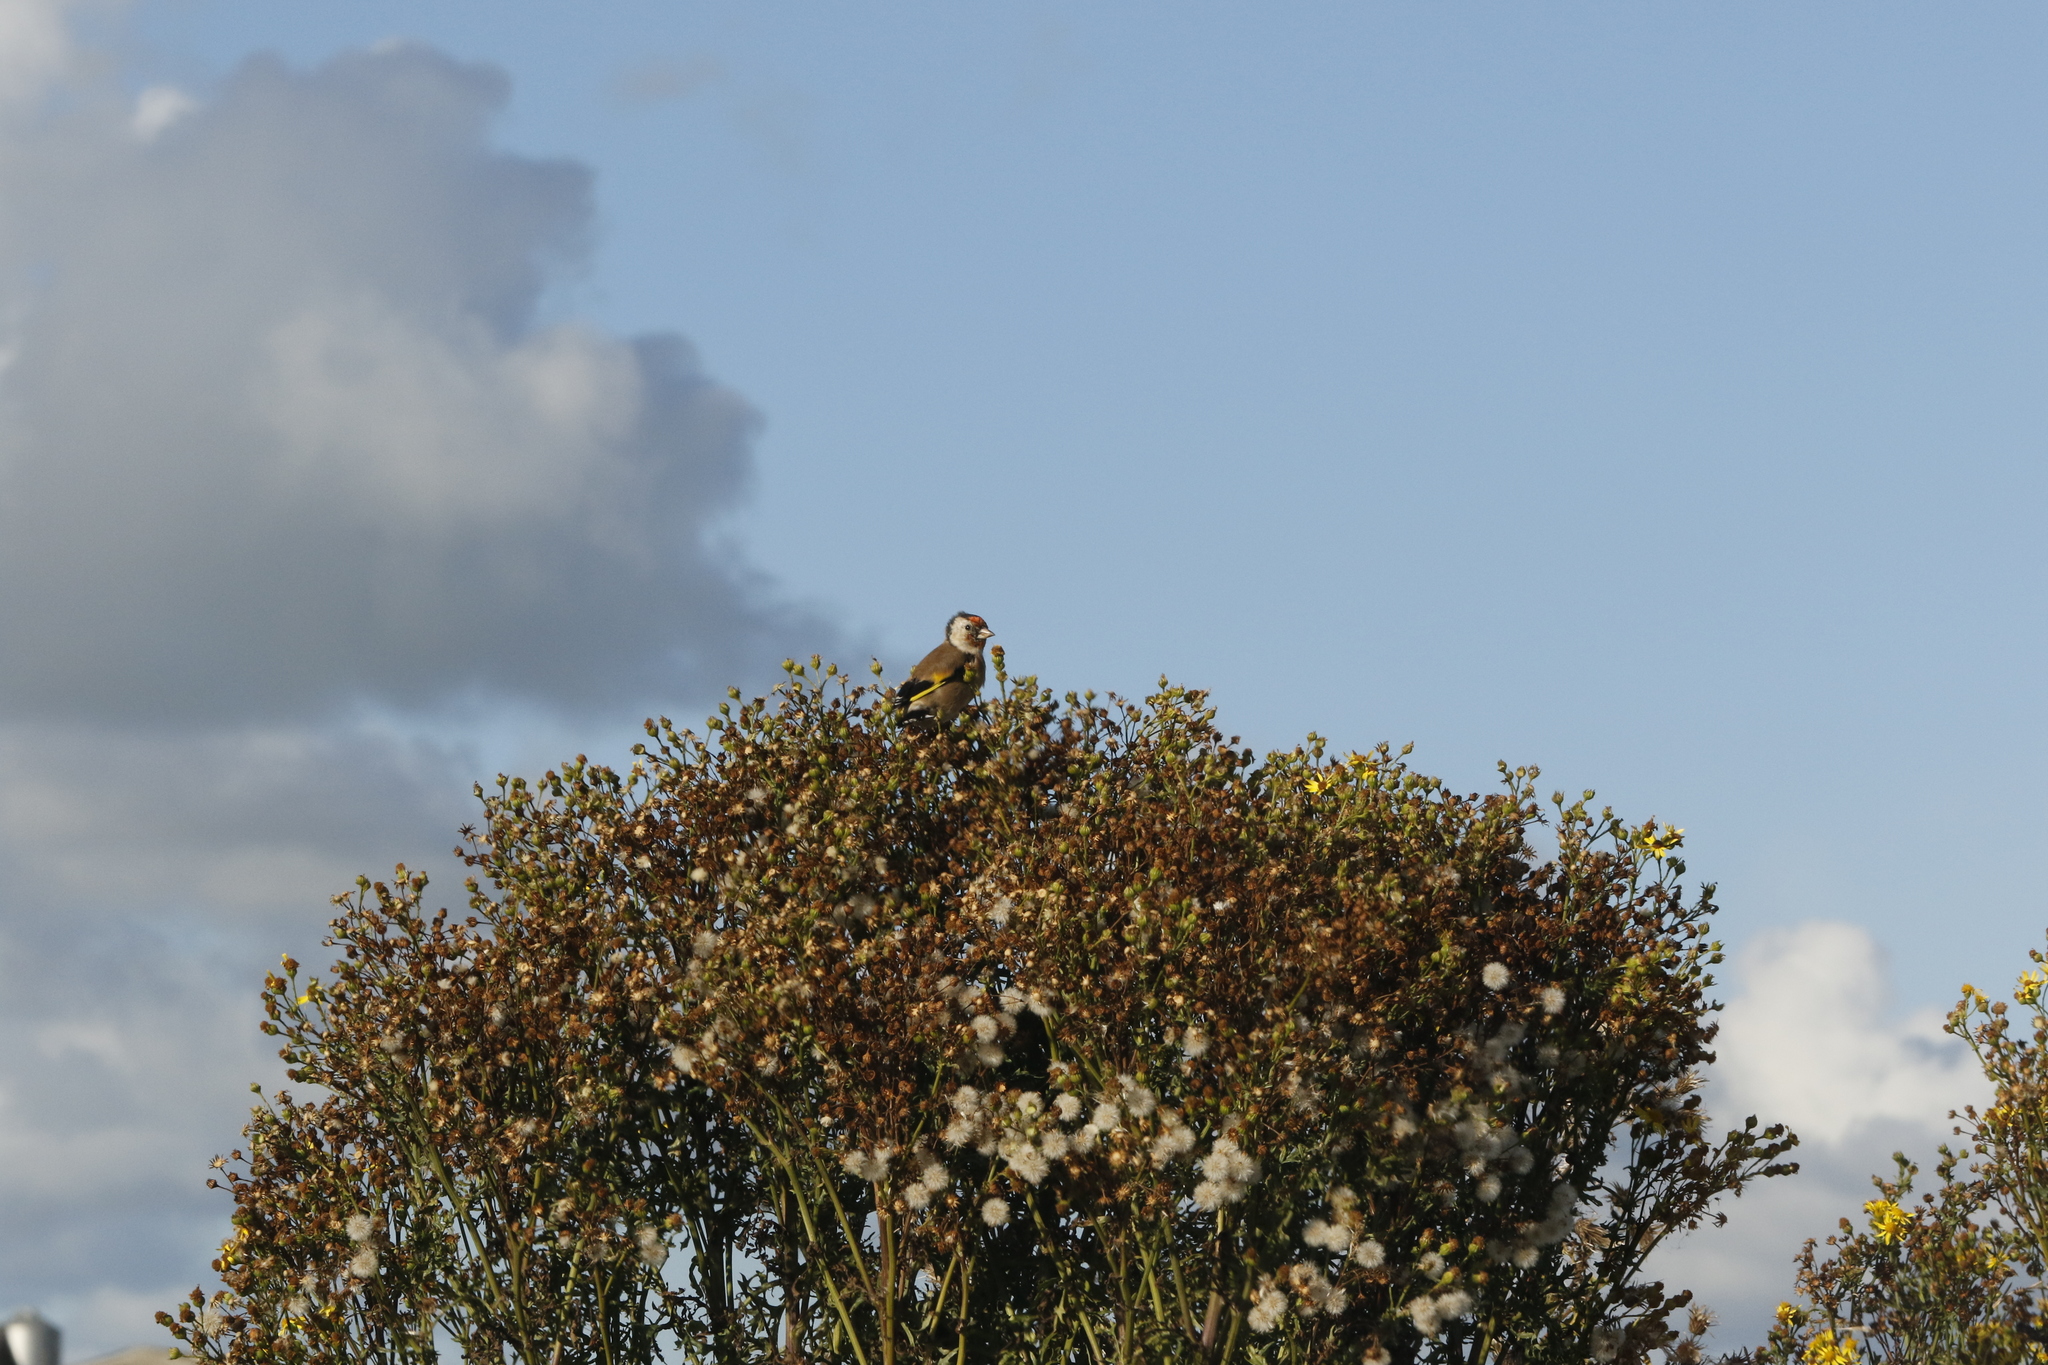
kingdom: Animalia
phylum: Chordata
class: Aves
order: Passeriformes
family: Fringillidae
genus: Carduelis
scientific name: Carduelis carduelis
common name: European goldfinch
